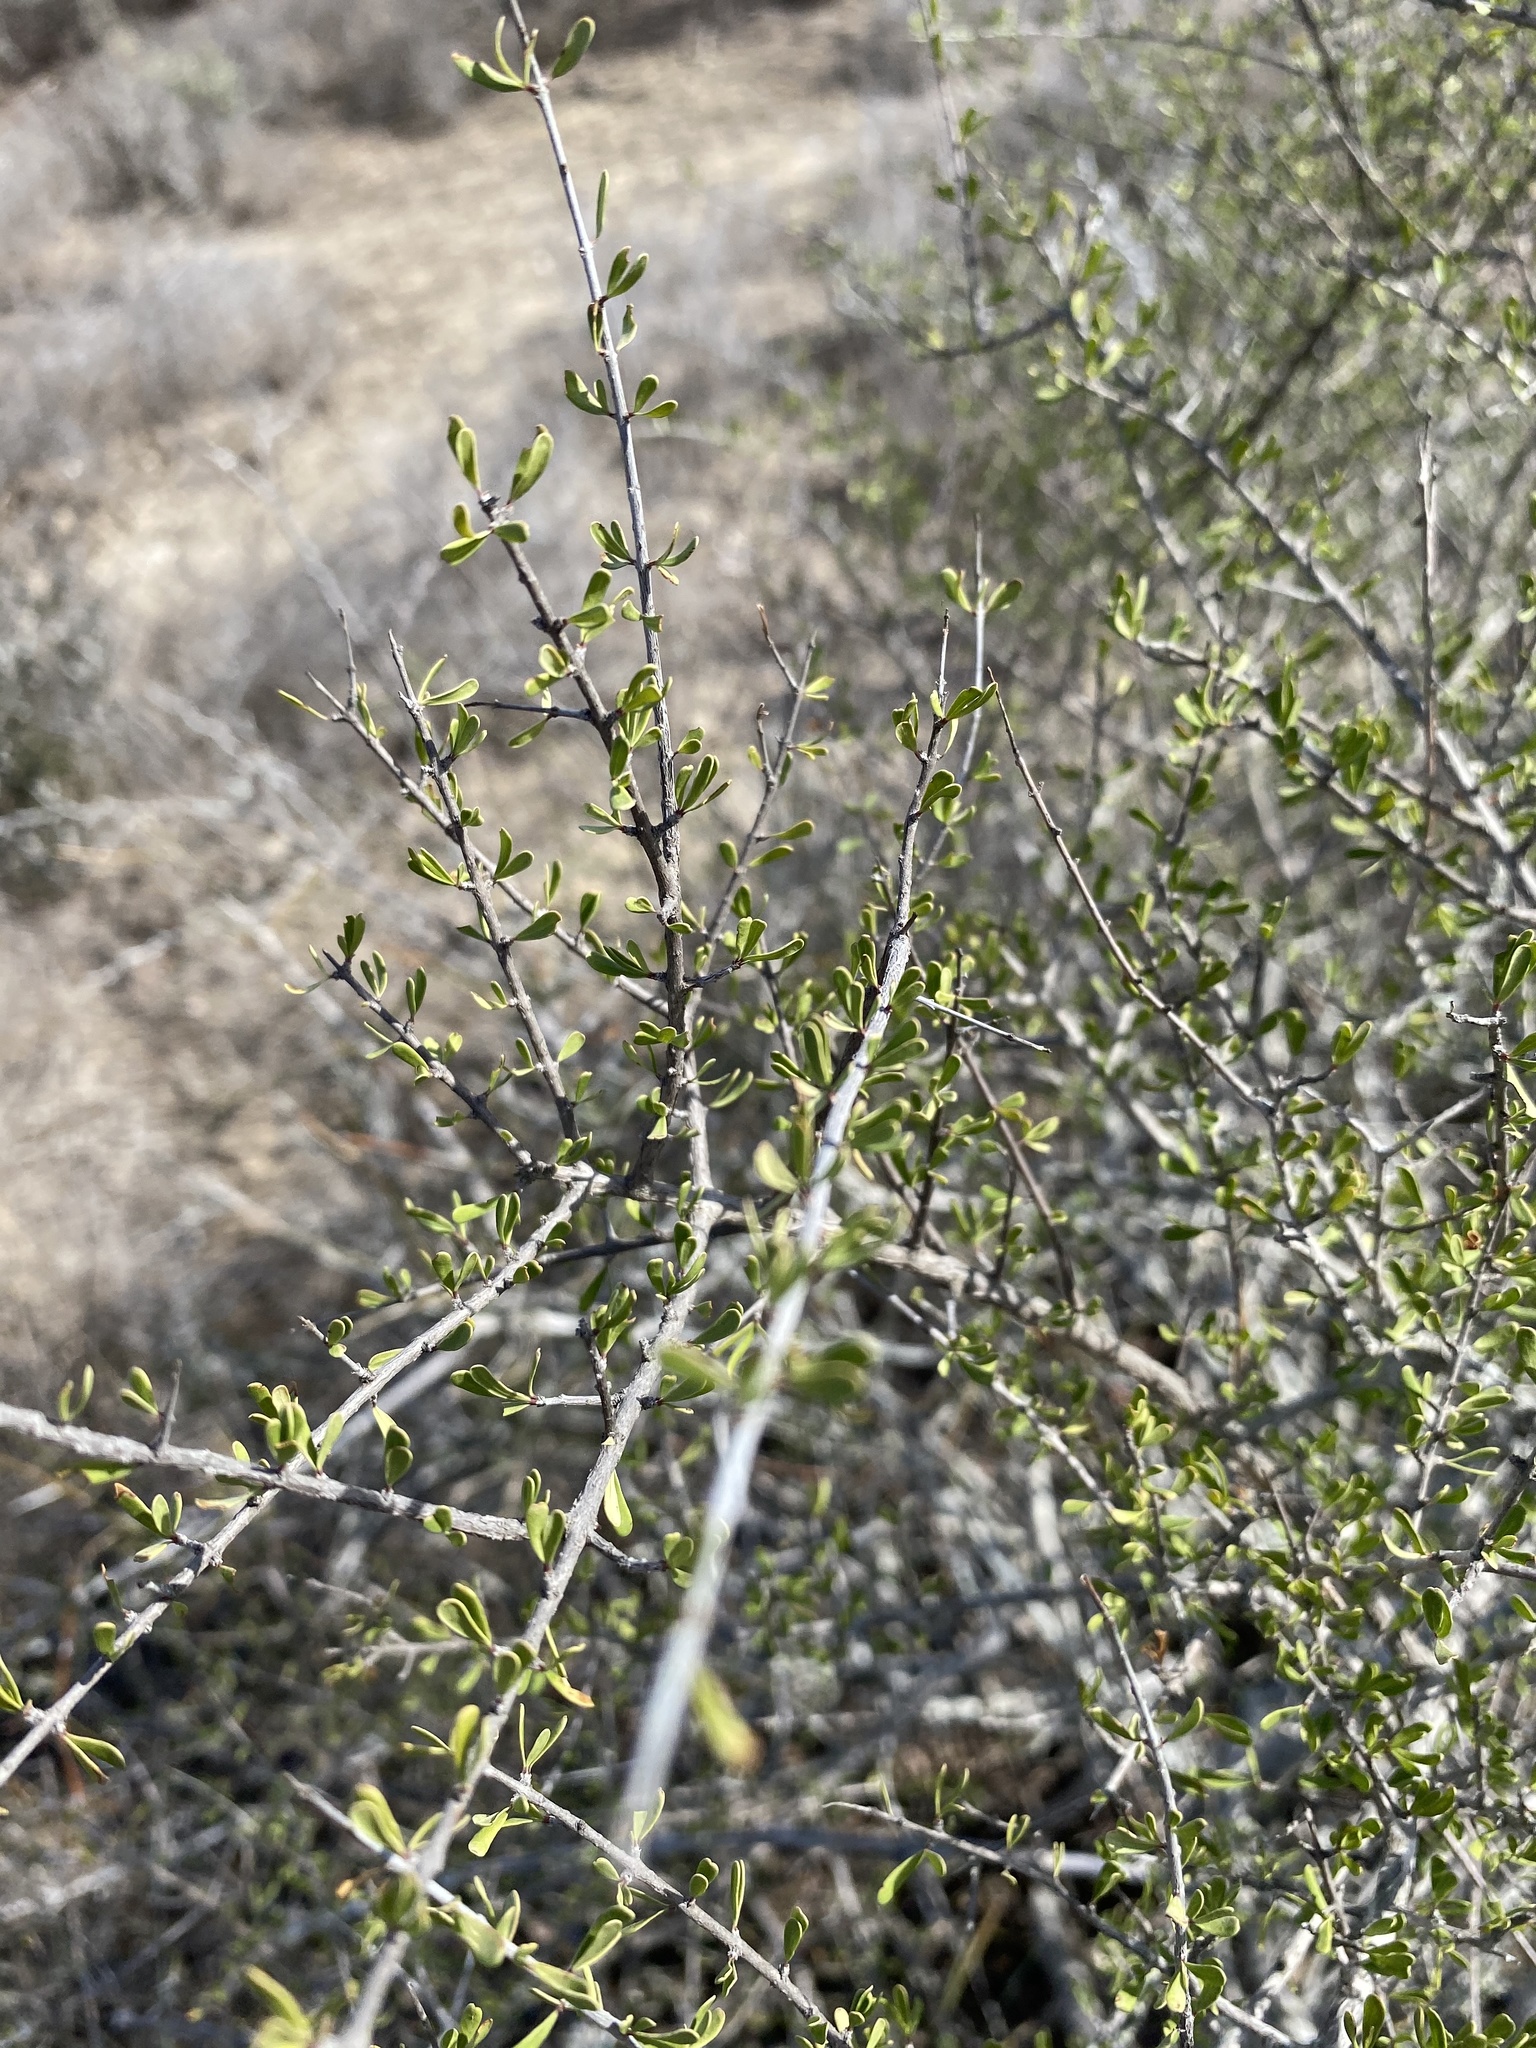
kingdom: Plantae
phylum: Tracheophyta
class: Magnoliopsida
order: Lamiales
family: Oleaceae
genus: Forestiera
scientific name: Forestiera angustifolia
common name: Elbowbush
